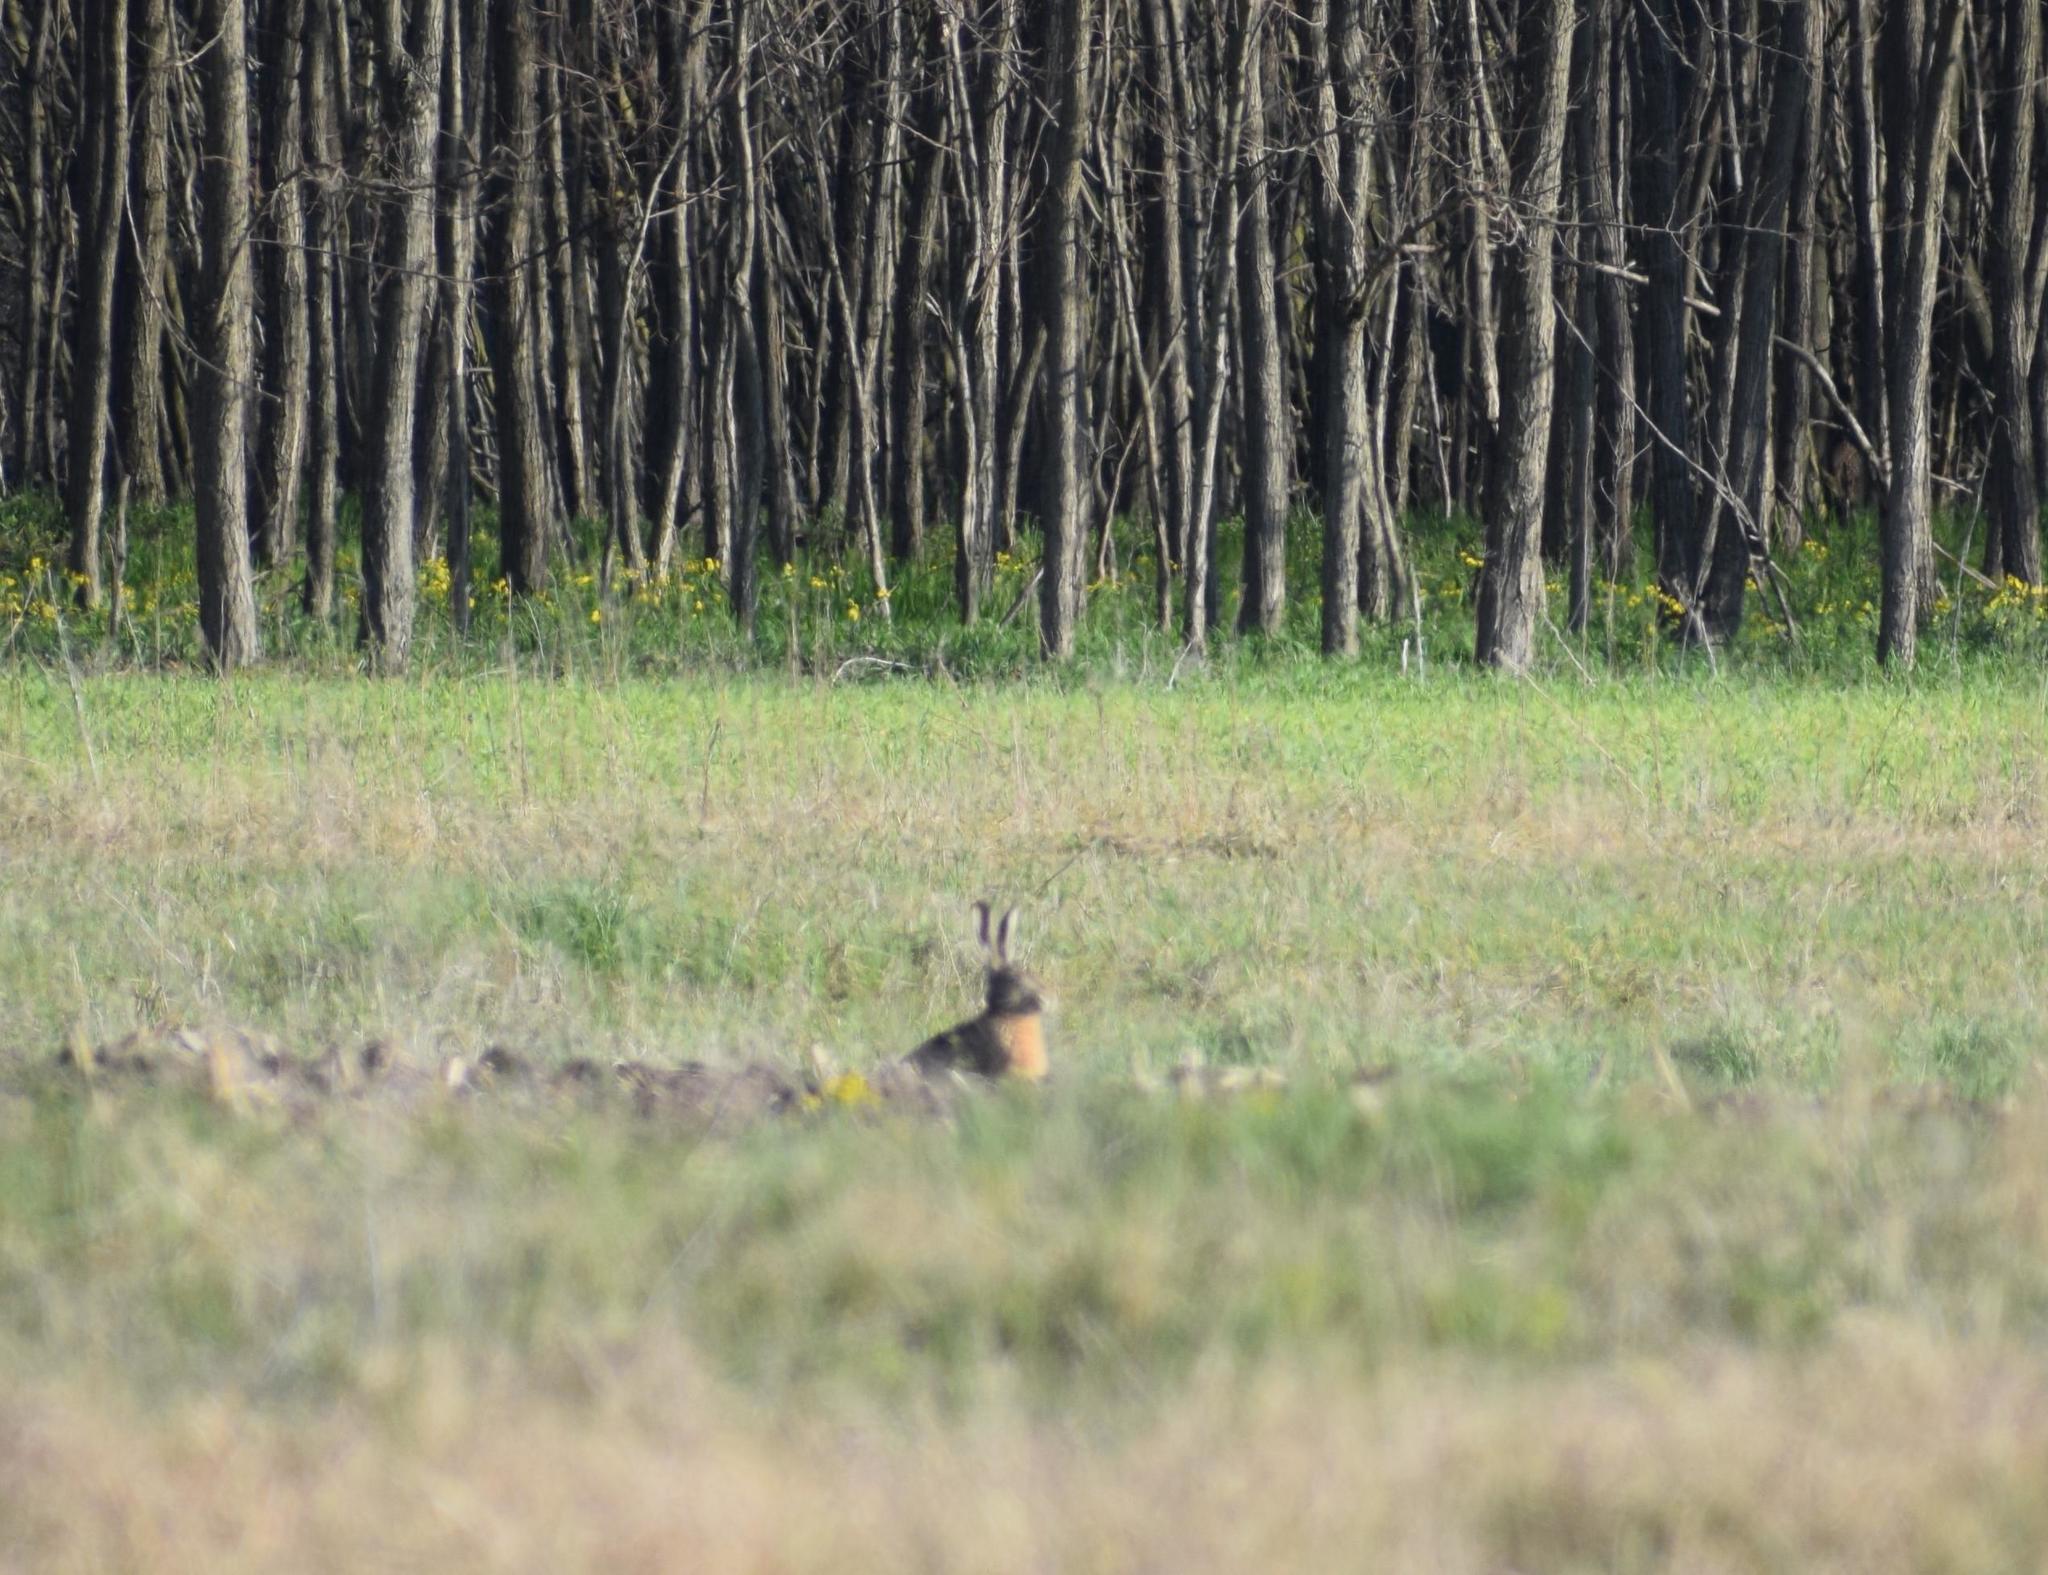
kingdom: Animalia
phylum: Chordata
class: Mammalia
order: Lagomorpha
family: Leporidae
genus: Lepus
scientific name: Lepus europaeus
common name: European hare
